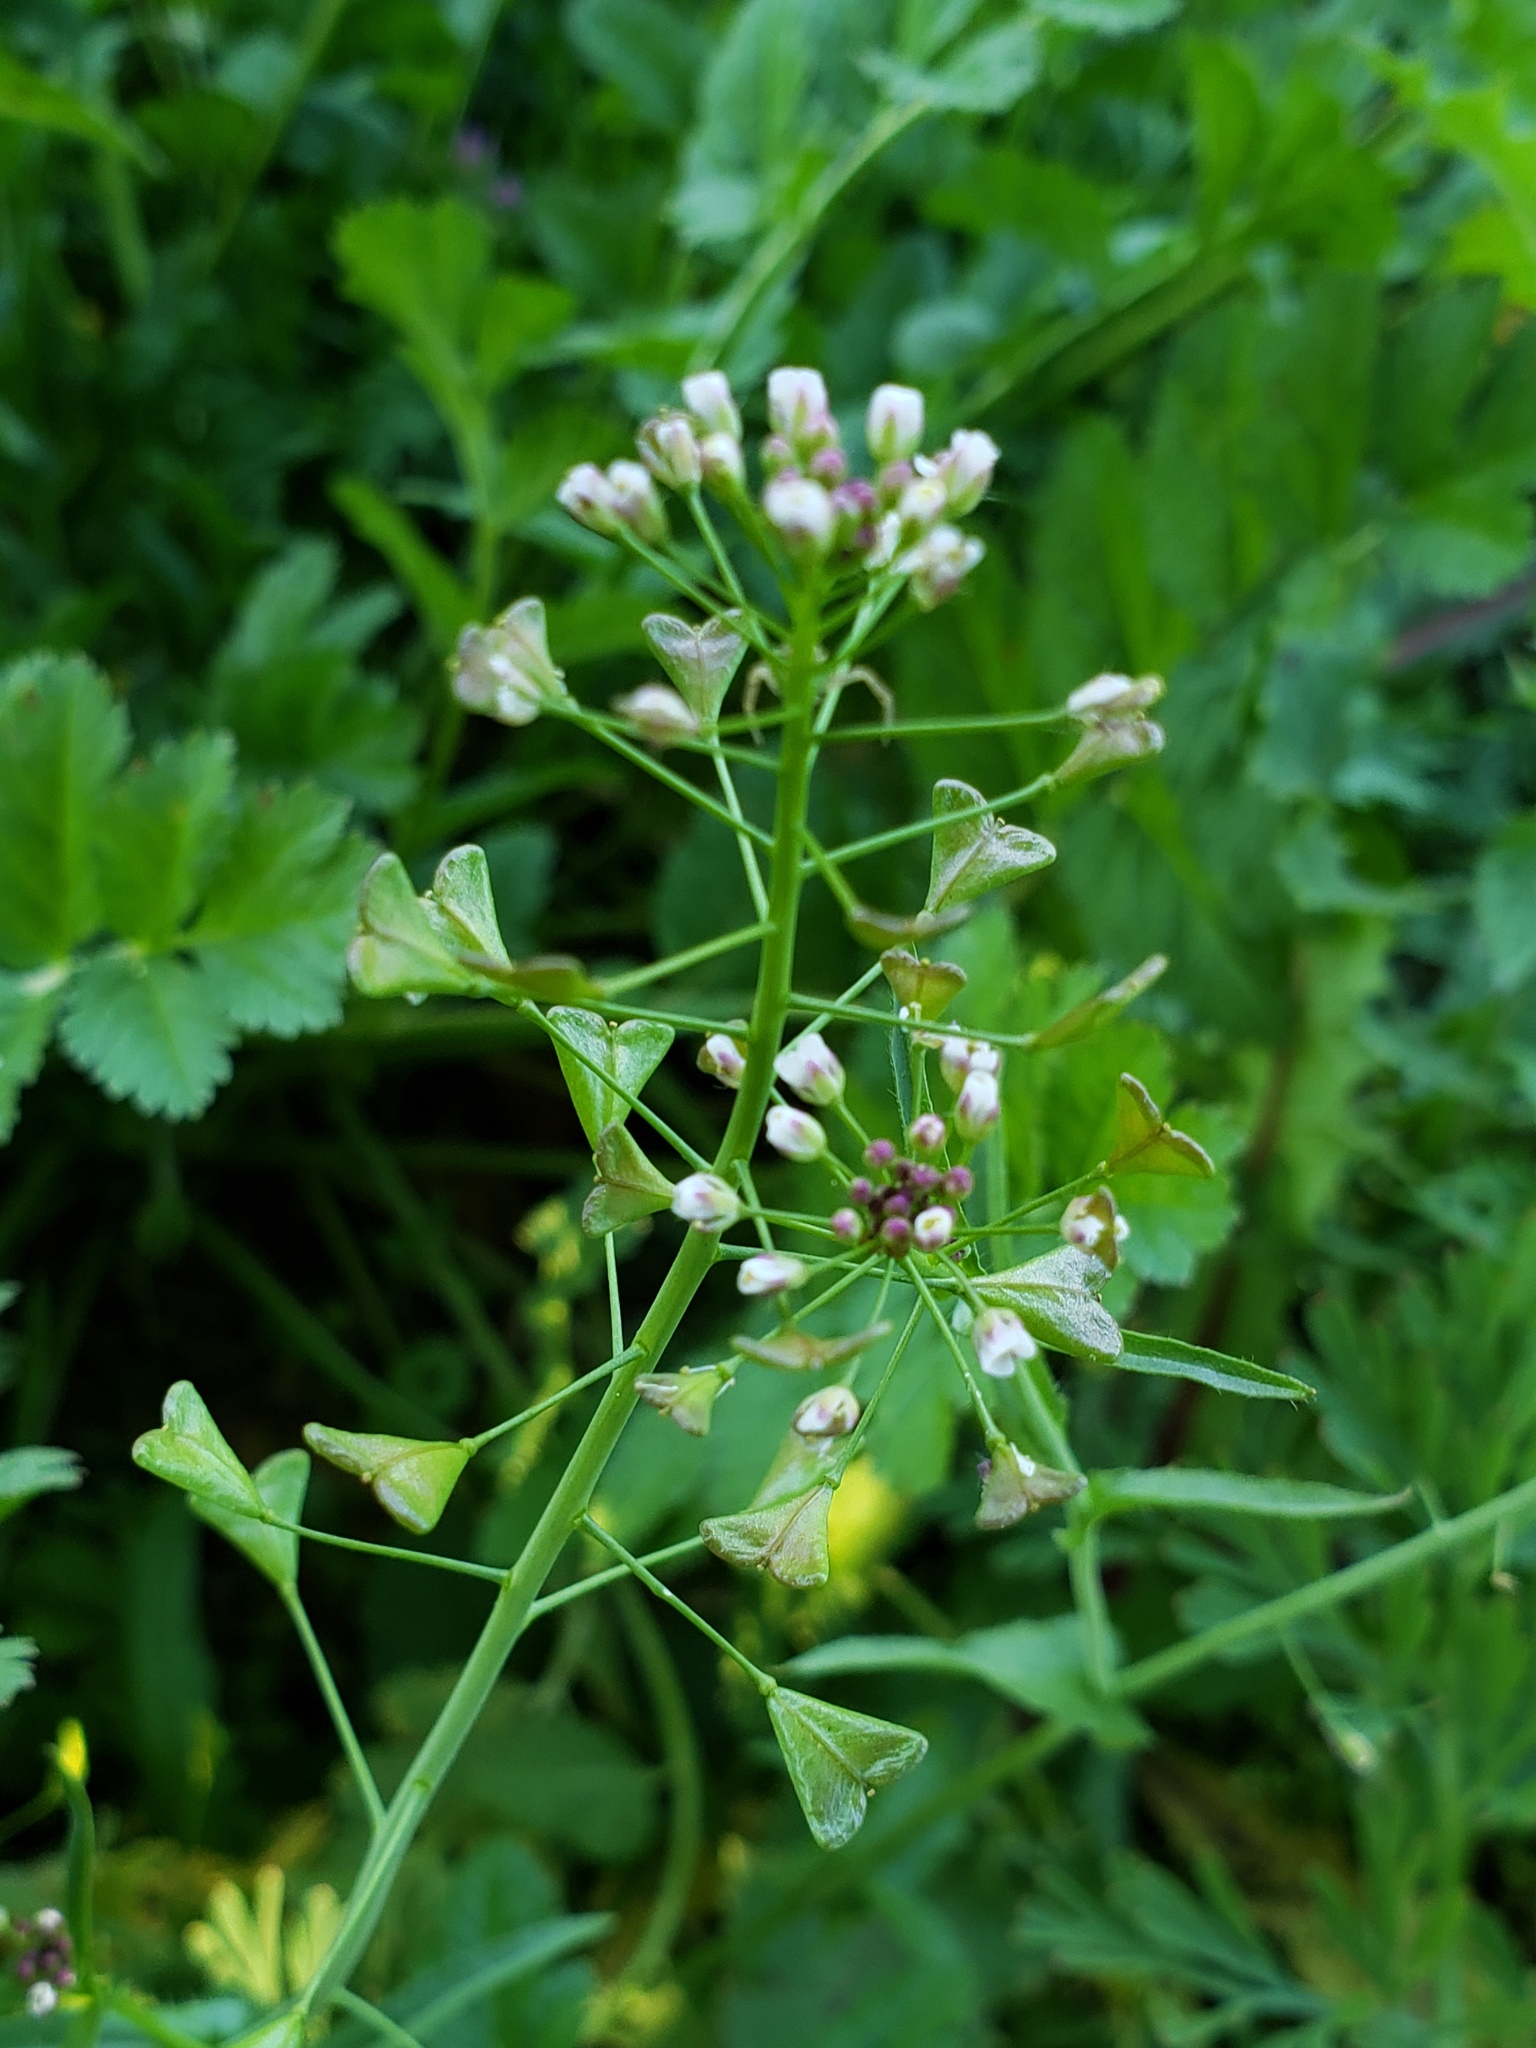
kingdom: Plantae
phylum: Tracheophyta
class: Magnoliopsida
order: Brassicales
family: Brassicaceae
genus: Capsella
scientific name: Capsella bursa-pastoris
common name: Shepherd's purse
